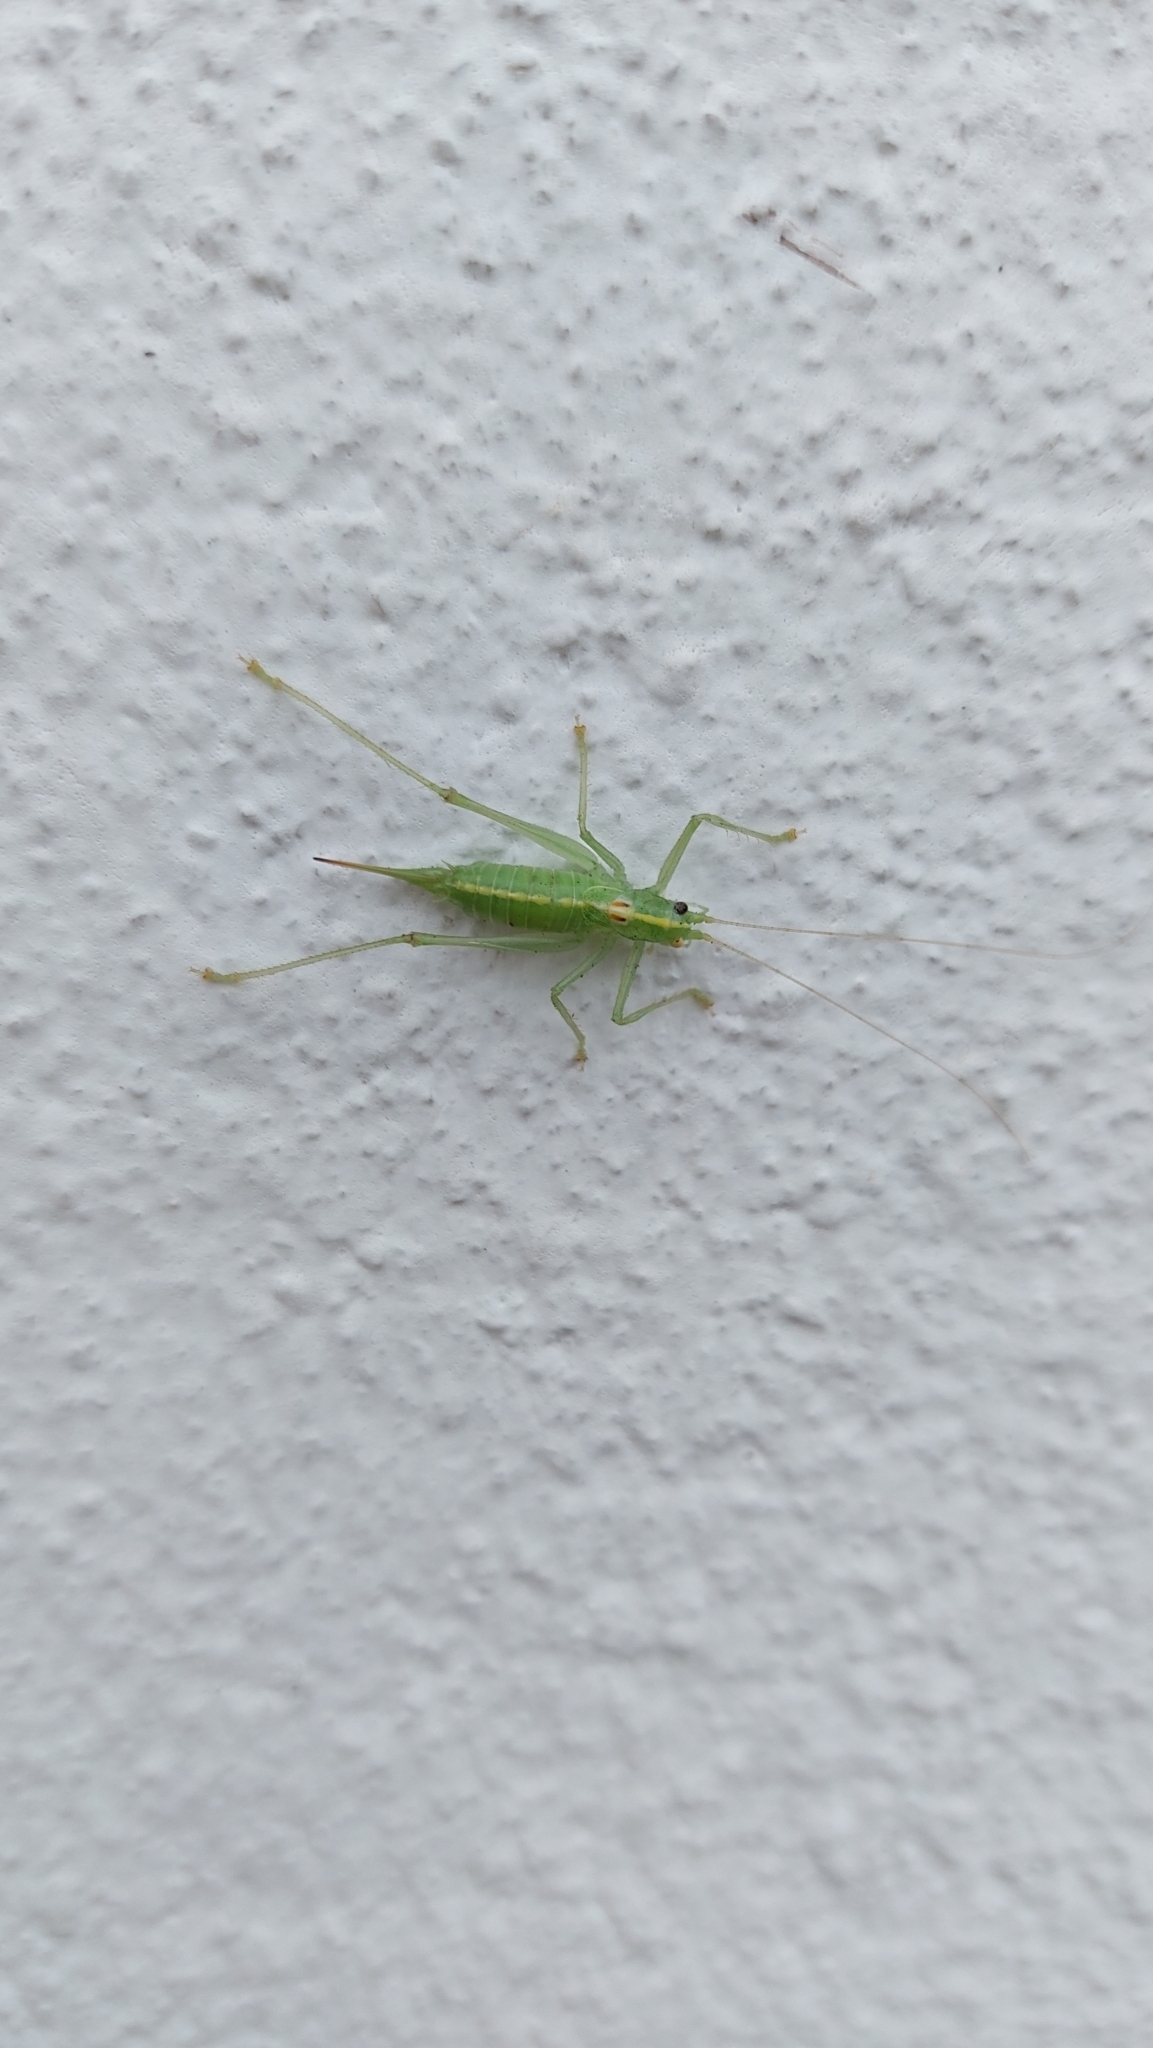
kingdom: Animalia
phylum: Arthropoda
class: Insecta
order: Orthoptera
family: Tettigoniidae
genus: Meconema
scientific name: Meconema meridionale
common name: Southern oak bush-cricket
